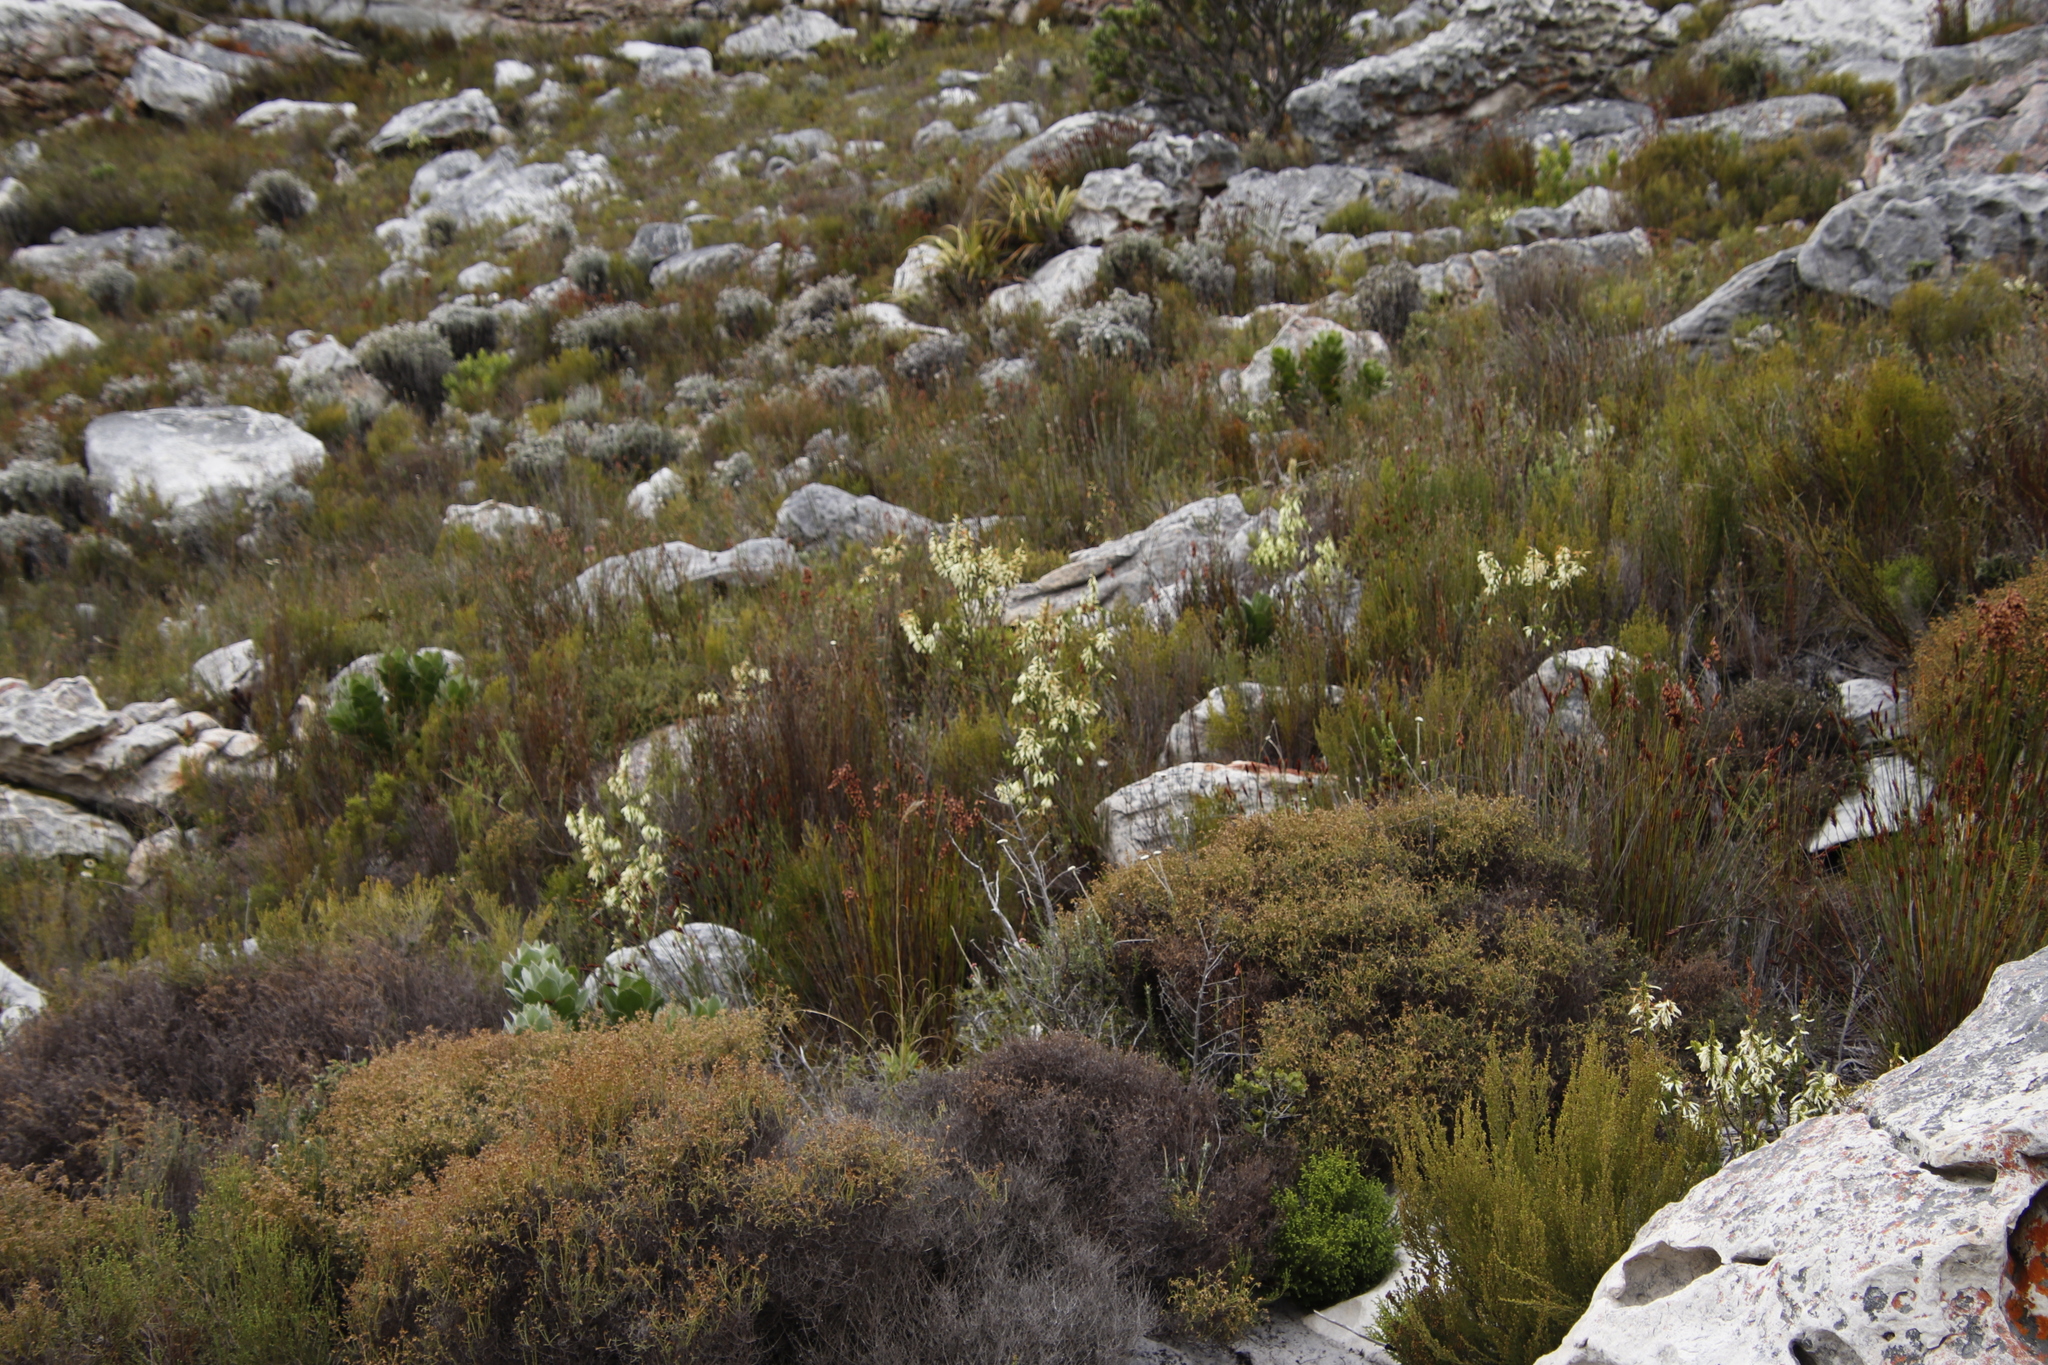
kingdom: Plantae
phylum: Tracheophyta
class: Magnoliopsida
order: Ericales
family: Ericaceae
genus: Erica
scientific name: Erica mammosa
